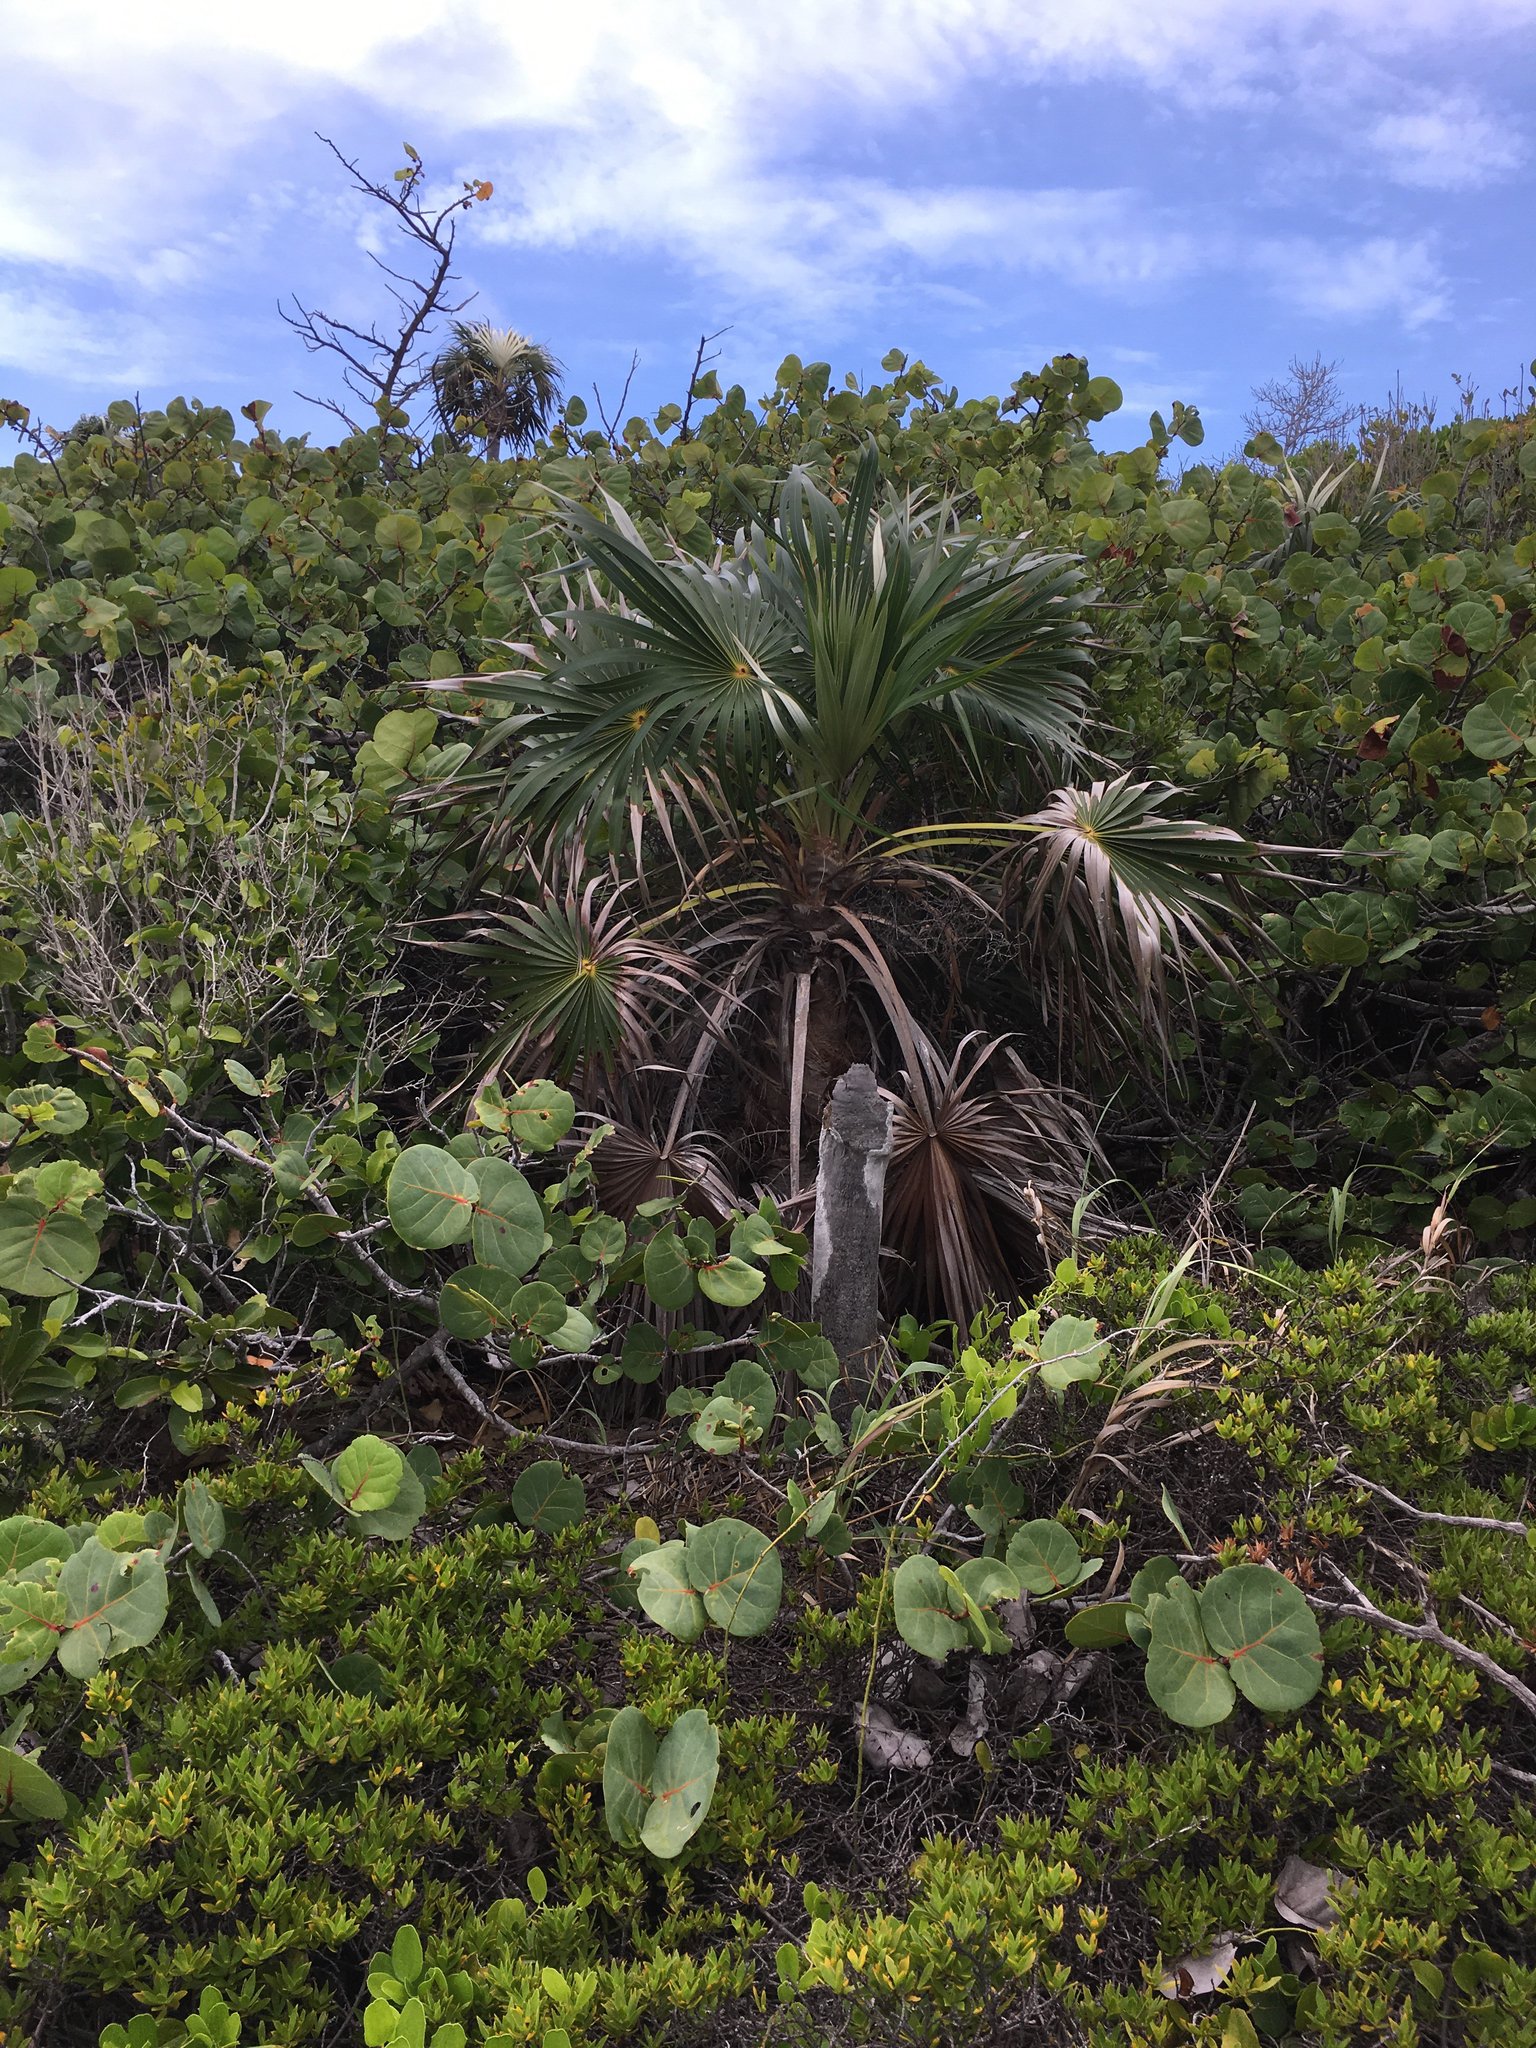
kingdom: Plantae
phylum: Tracheophyta
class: Liliopsida
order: Arecales
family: Arecaceae
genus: Coccothrinax
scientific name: Coccothrinax argentata
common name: Florida silver palm
